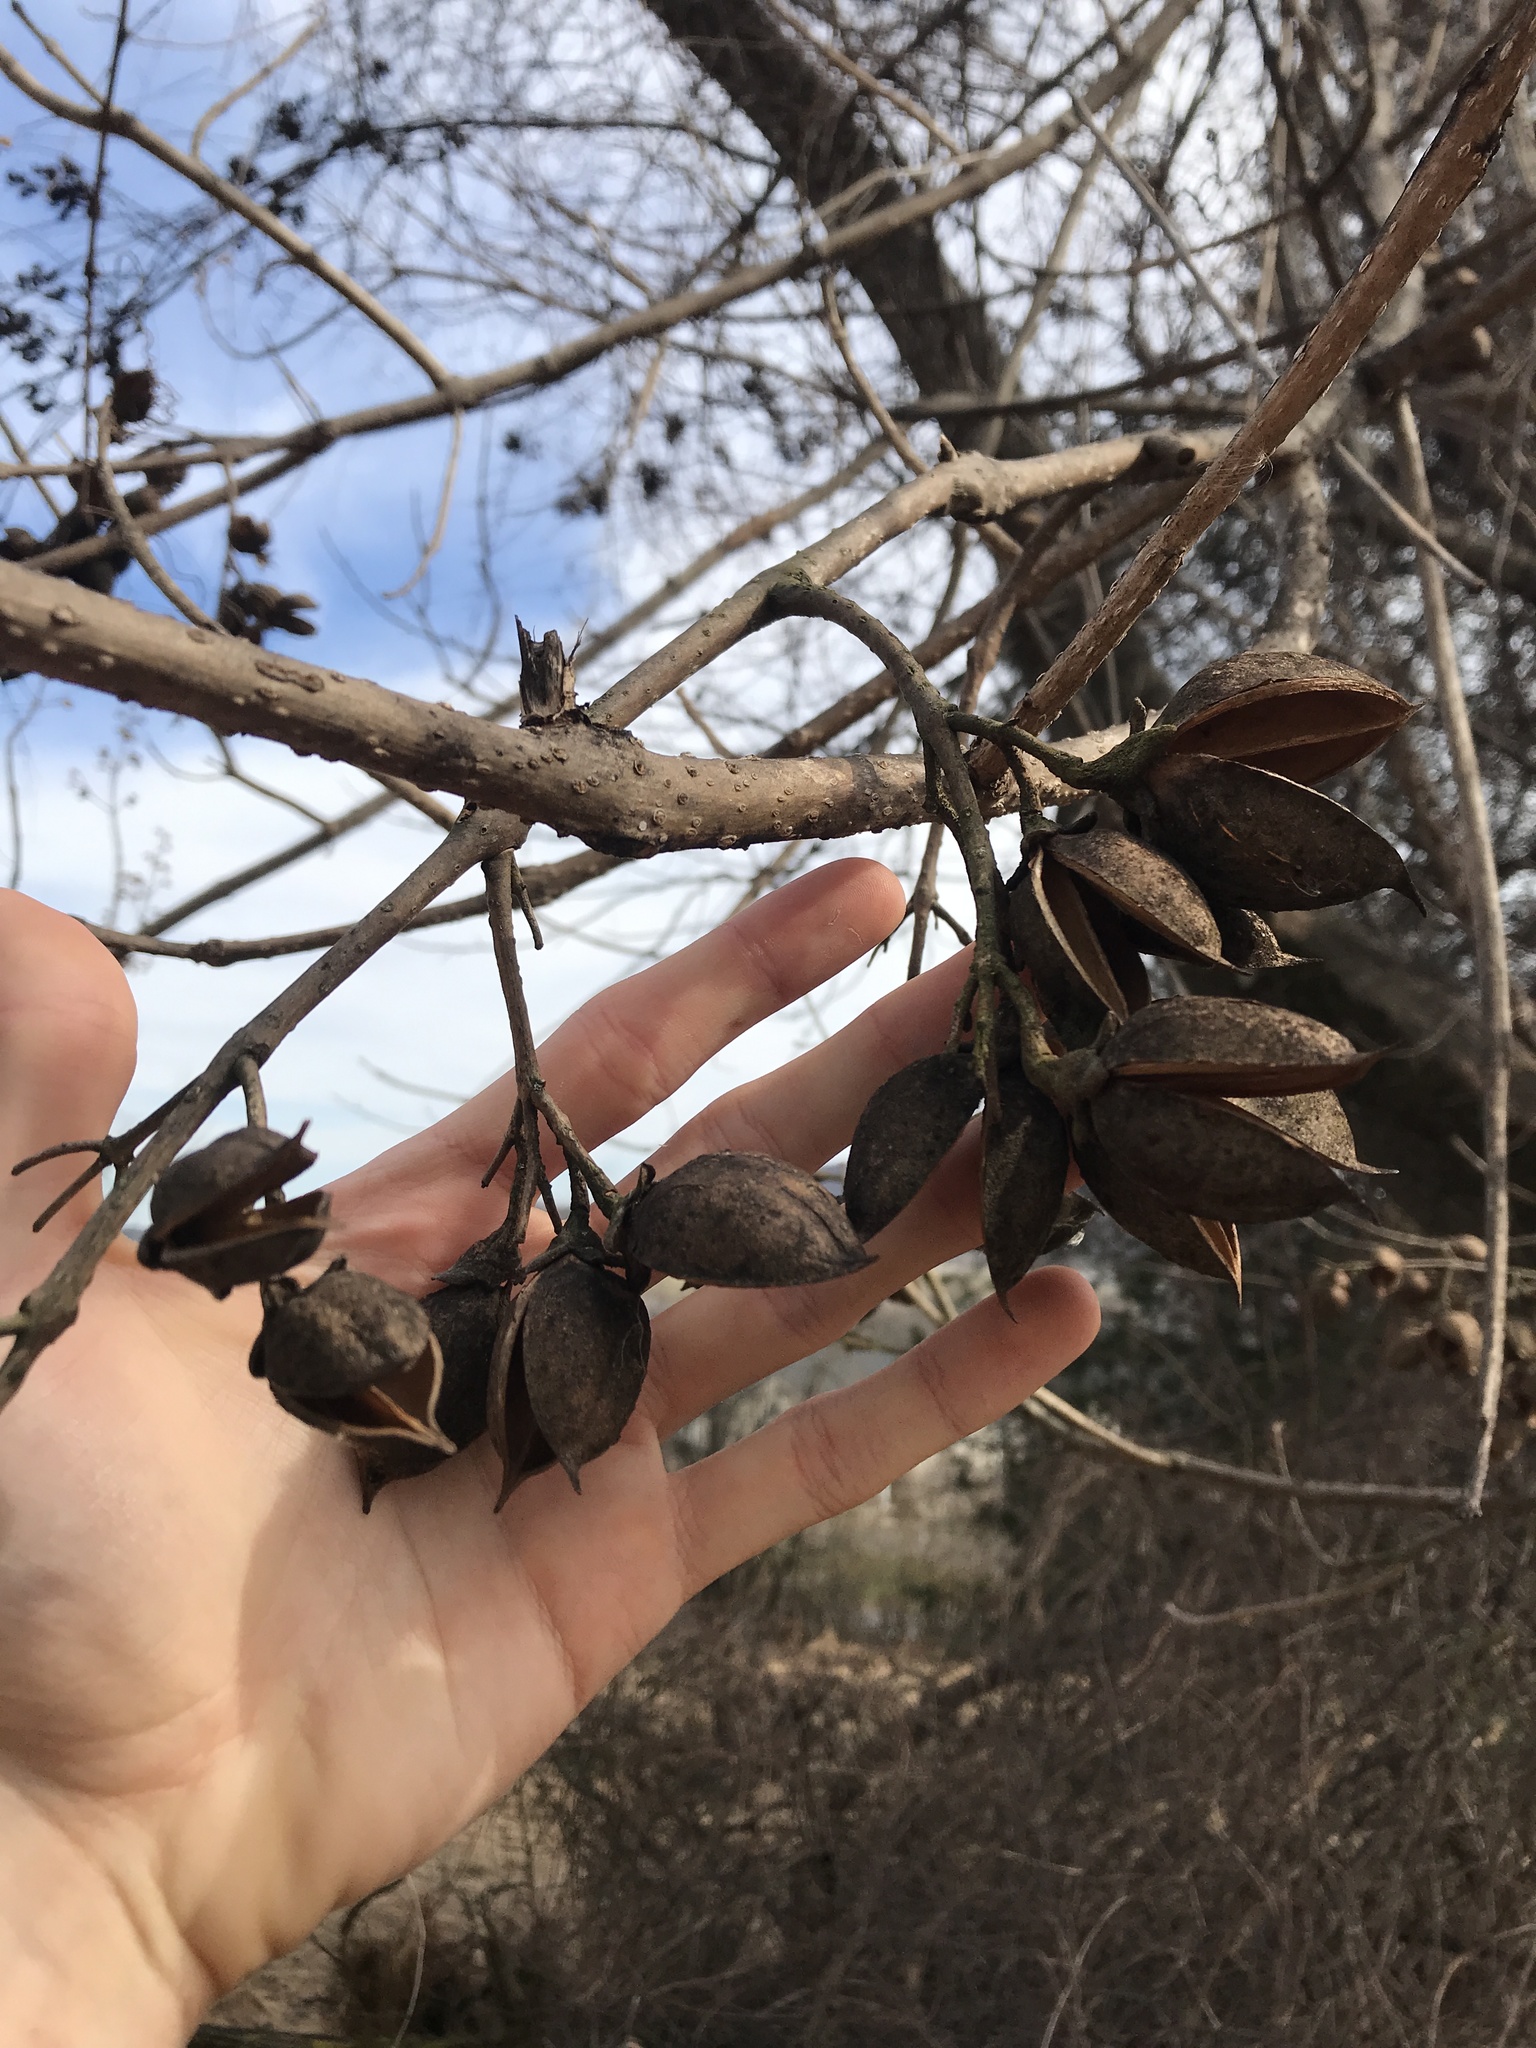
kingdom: Plantae
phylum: Tracheophyta
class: Magnoliopsida
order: Lamiales
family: Paulowniaceae
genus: Paulownia
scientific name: Paulownia tomentosa
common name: Foxglove-tree
